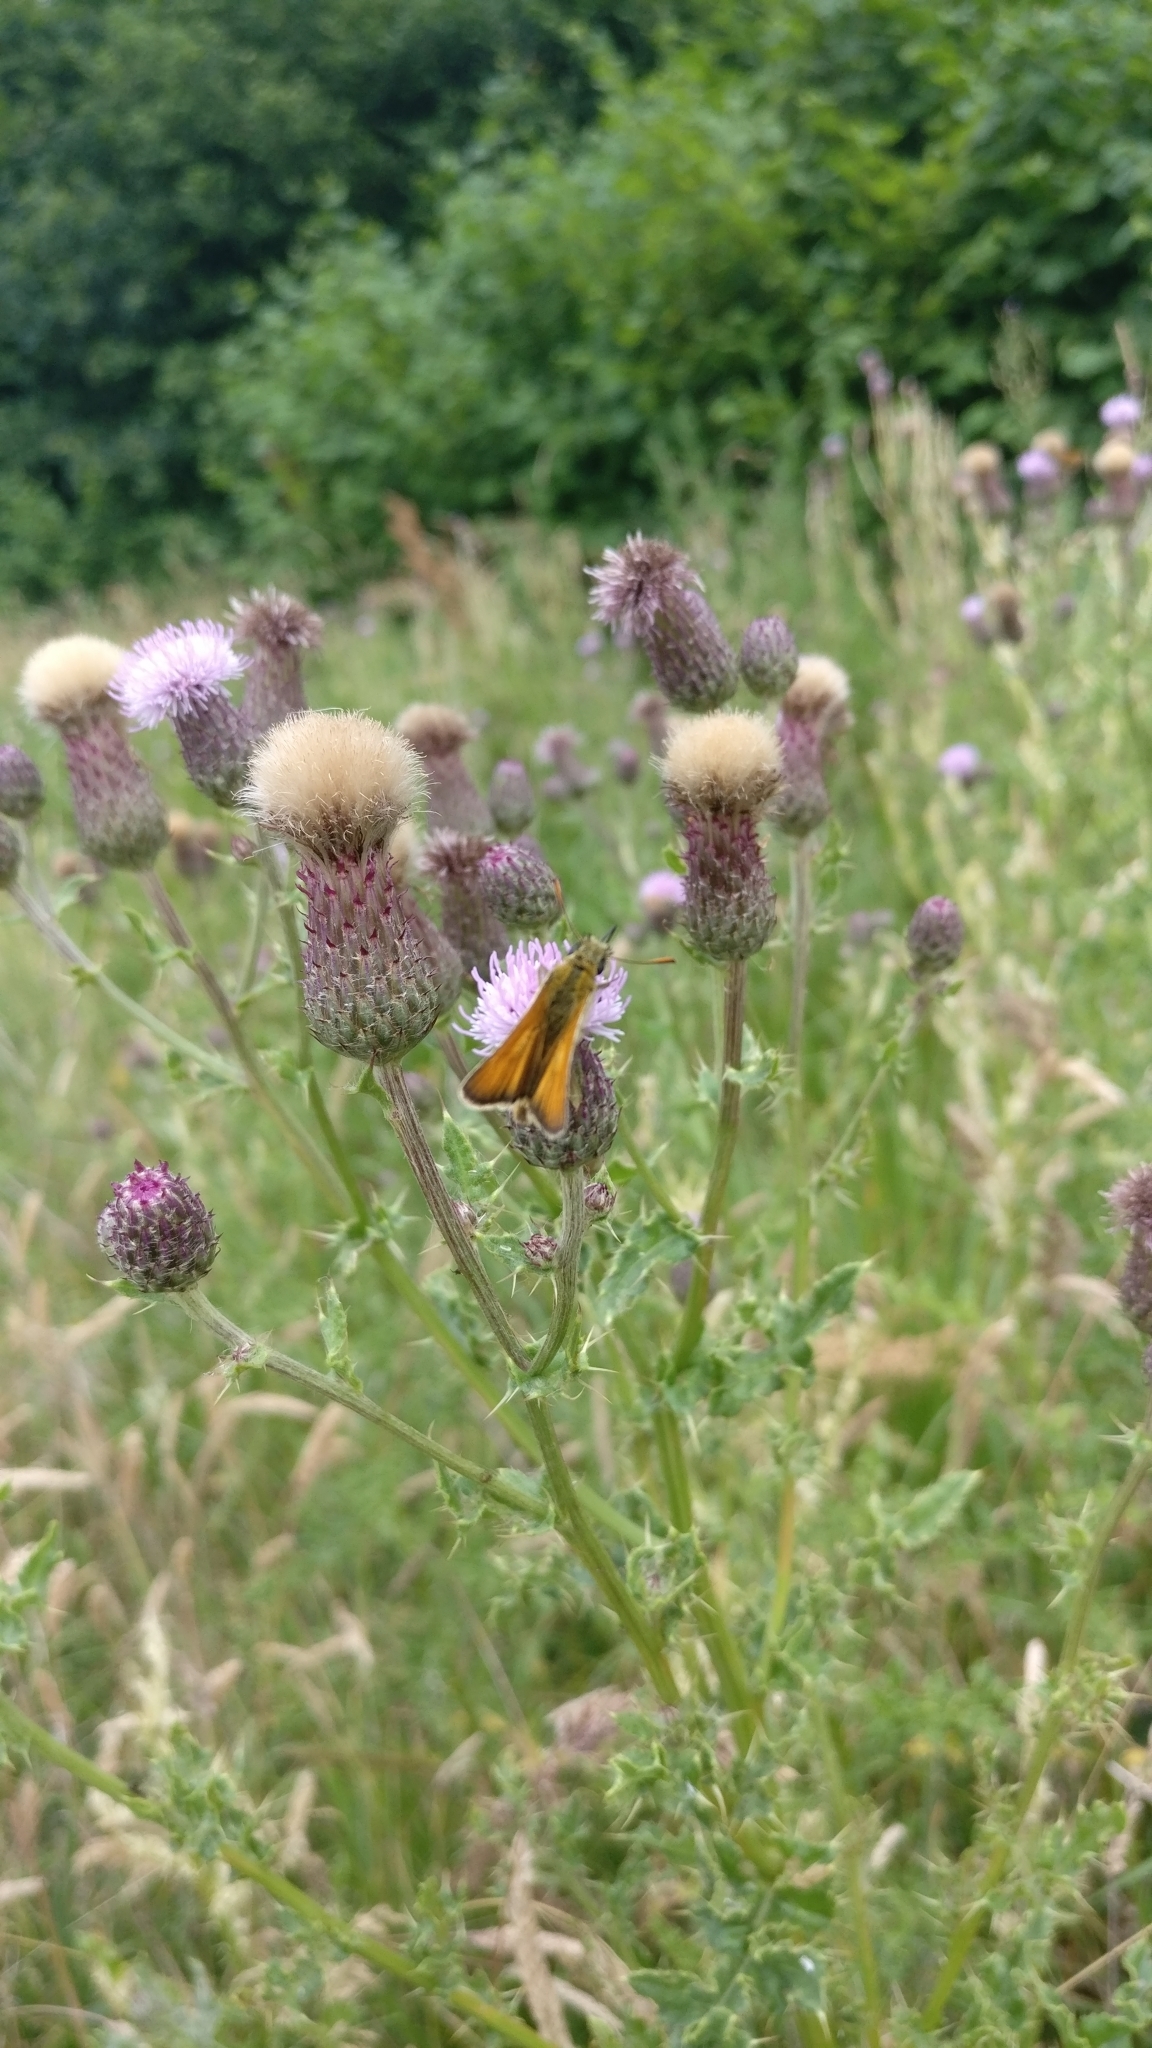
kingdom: Animalia
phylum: Arthropoda
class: Insecta
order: Lepidoptera
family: Hesperiidae
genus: Thymelicus
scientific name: Thymelicus sylvestris
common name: Small skipper
